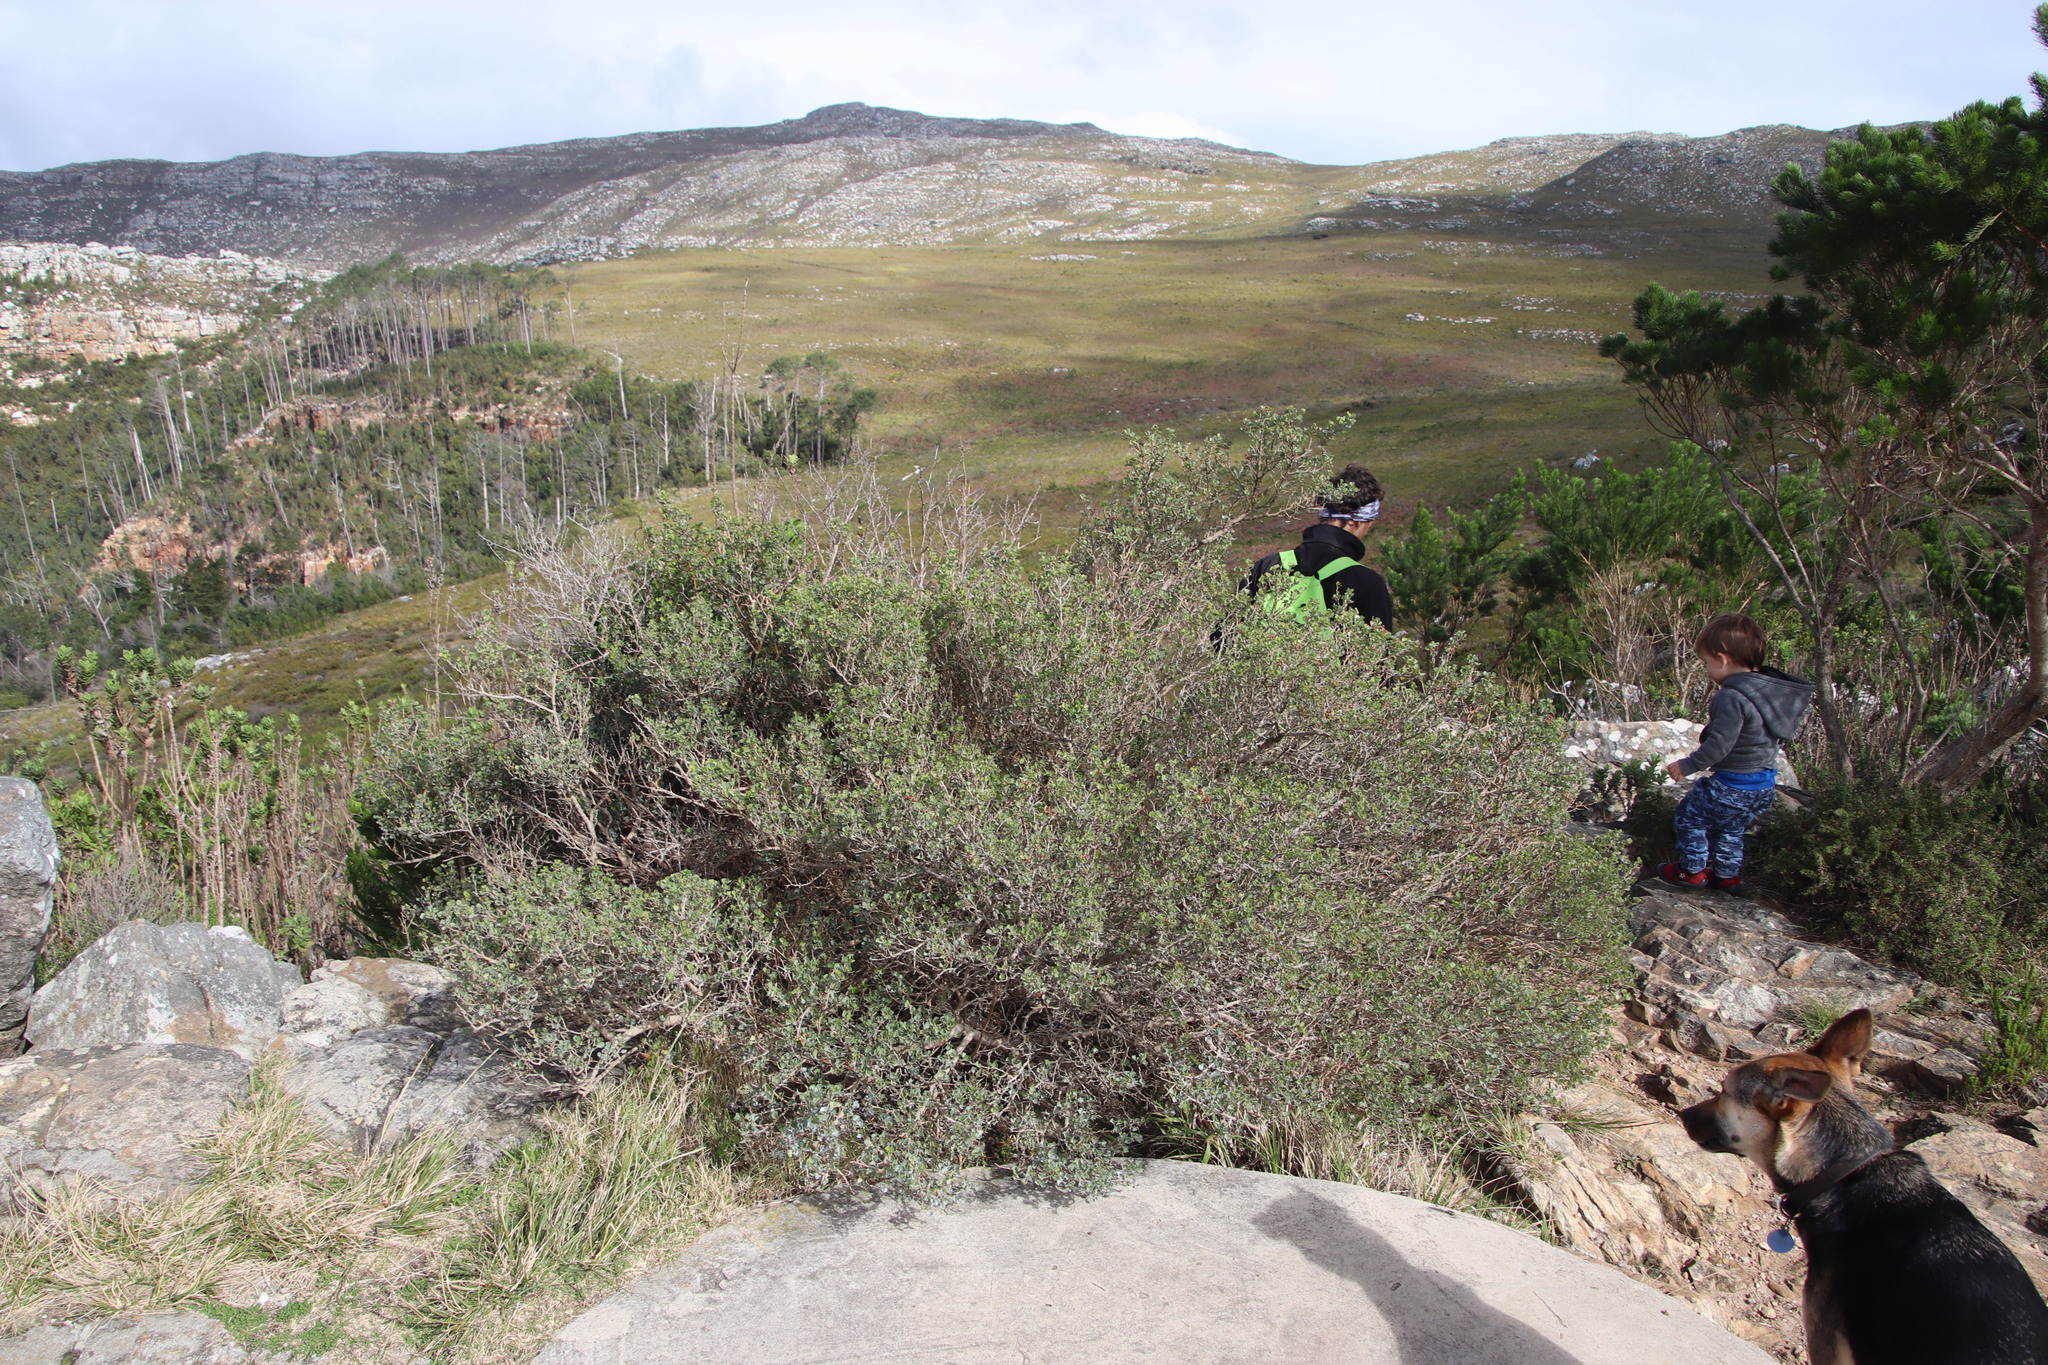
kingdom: Plantae
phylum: Tracheophyta
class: Magnoliopsida
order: Sapindales
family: Anacardiaceae
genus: Searsia
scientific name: Searsia glauca
